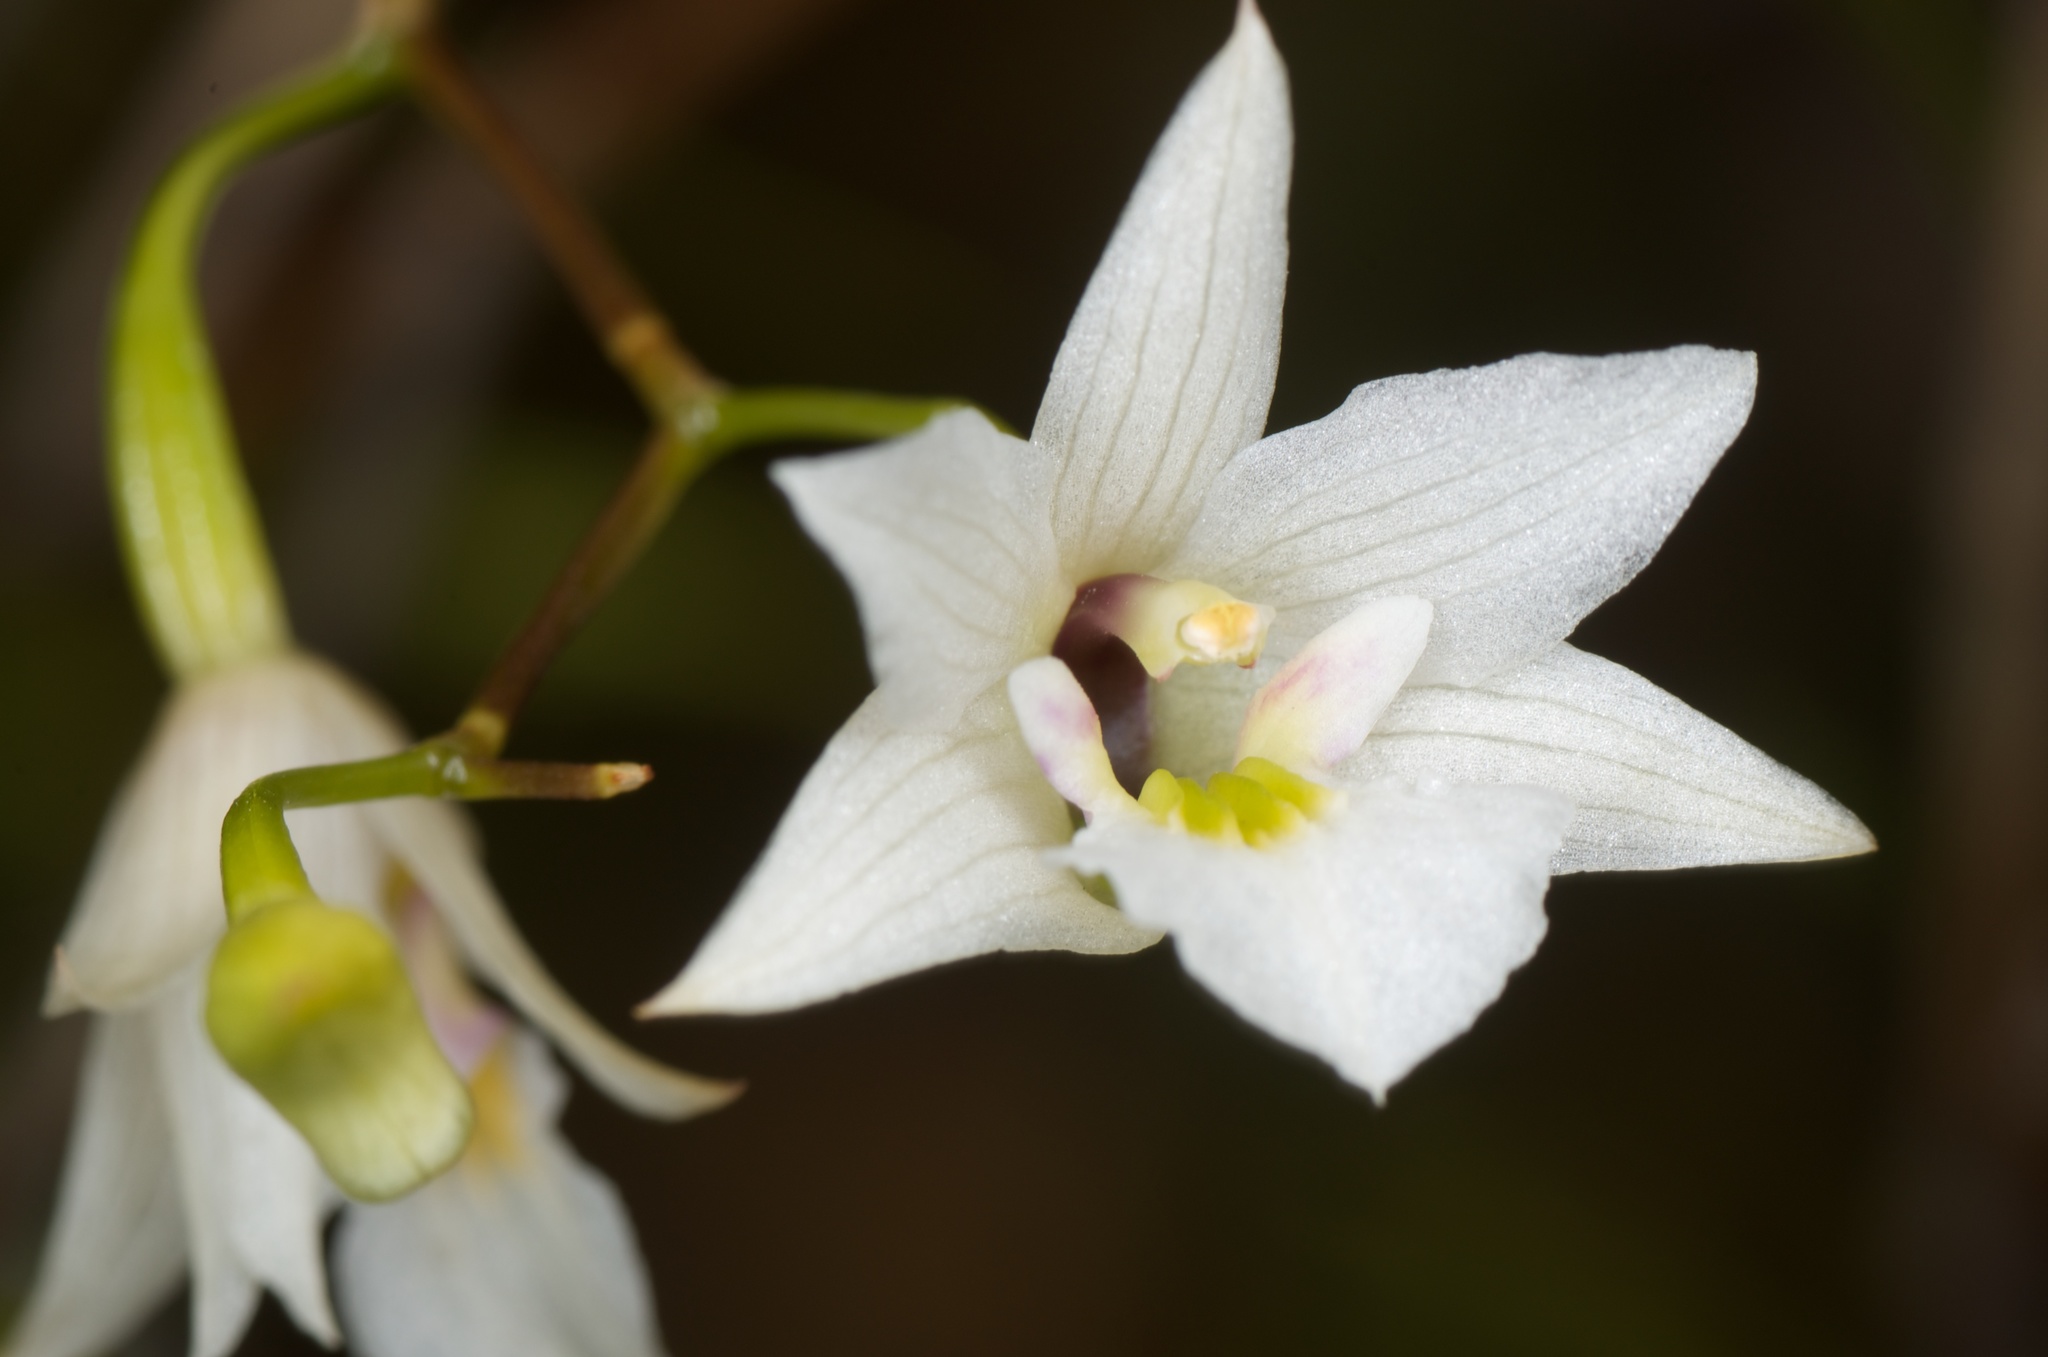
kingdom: Plantae
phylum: Tracheophyta
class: Liliopsida
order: Asparagales
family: Orchidaceae
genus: Dendrobium
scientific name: Dendrobium cunninghamii
